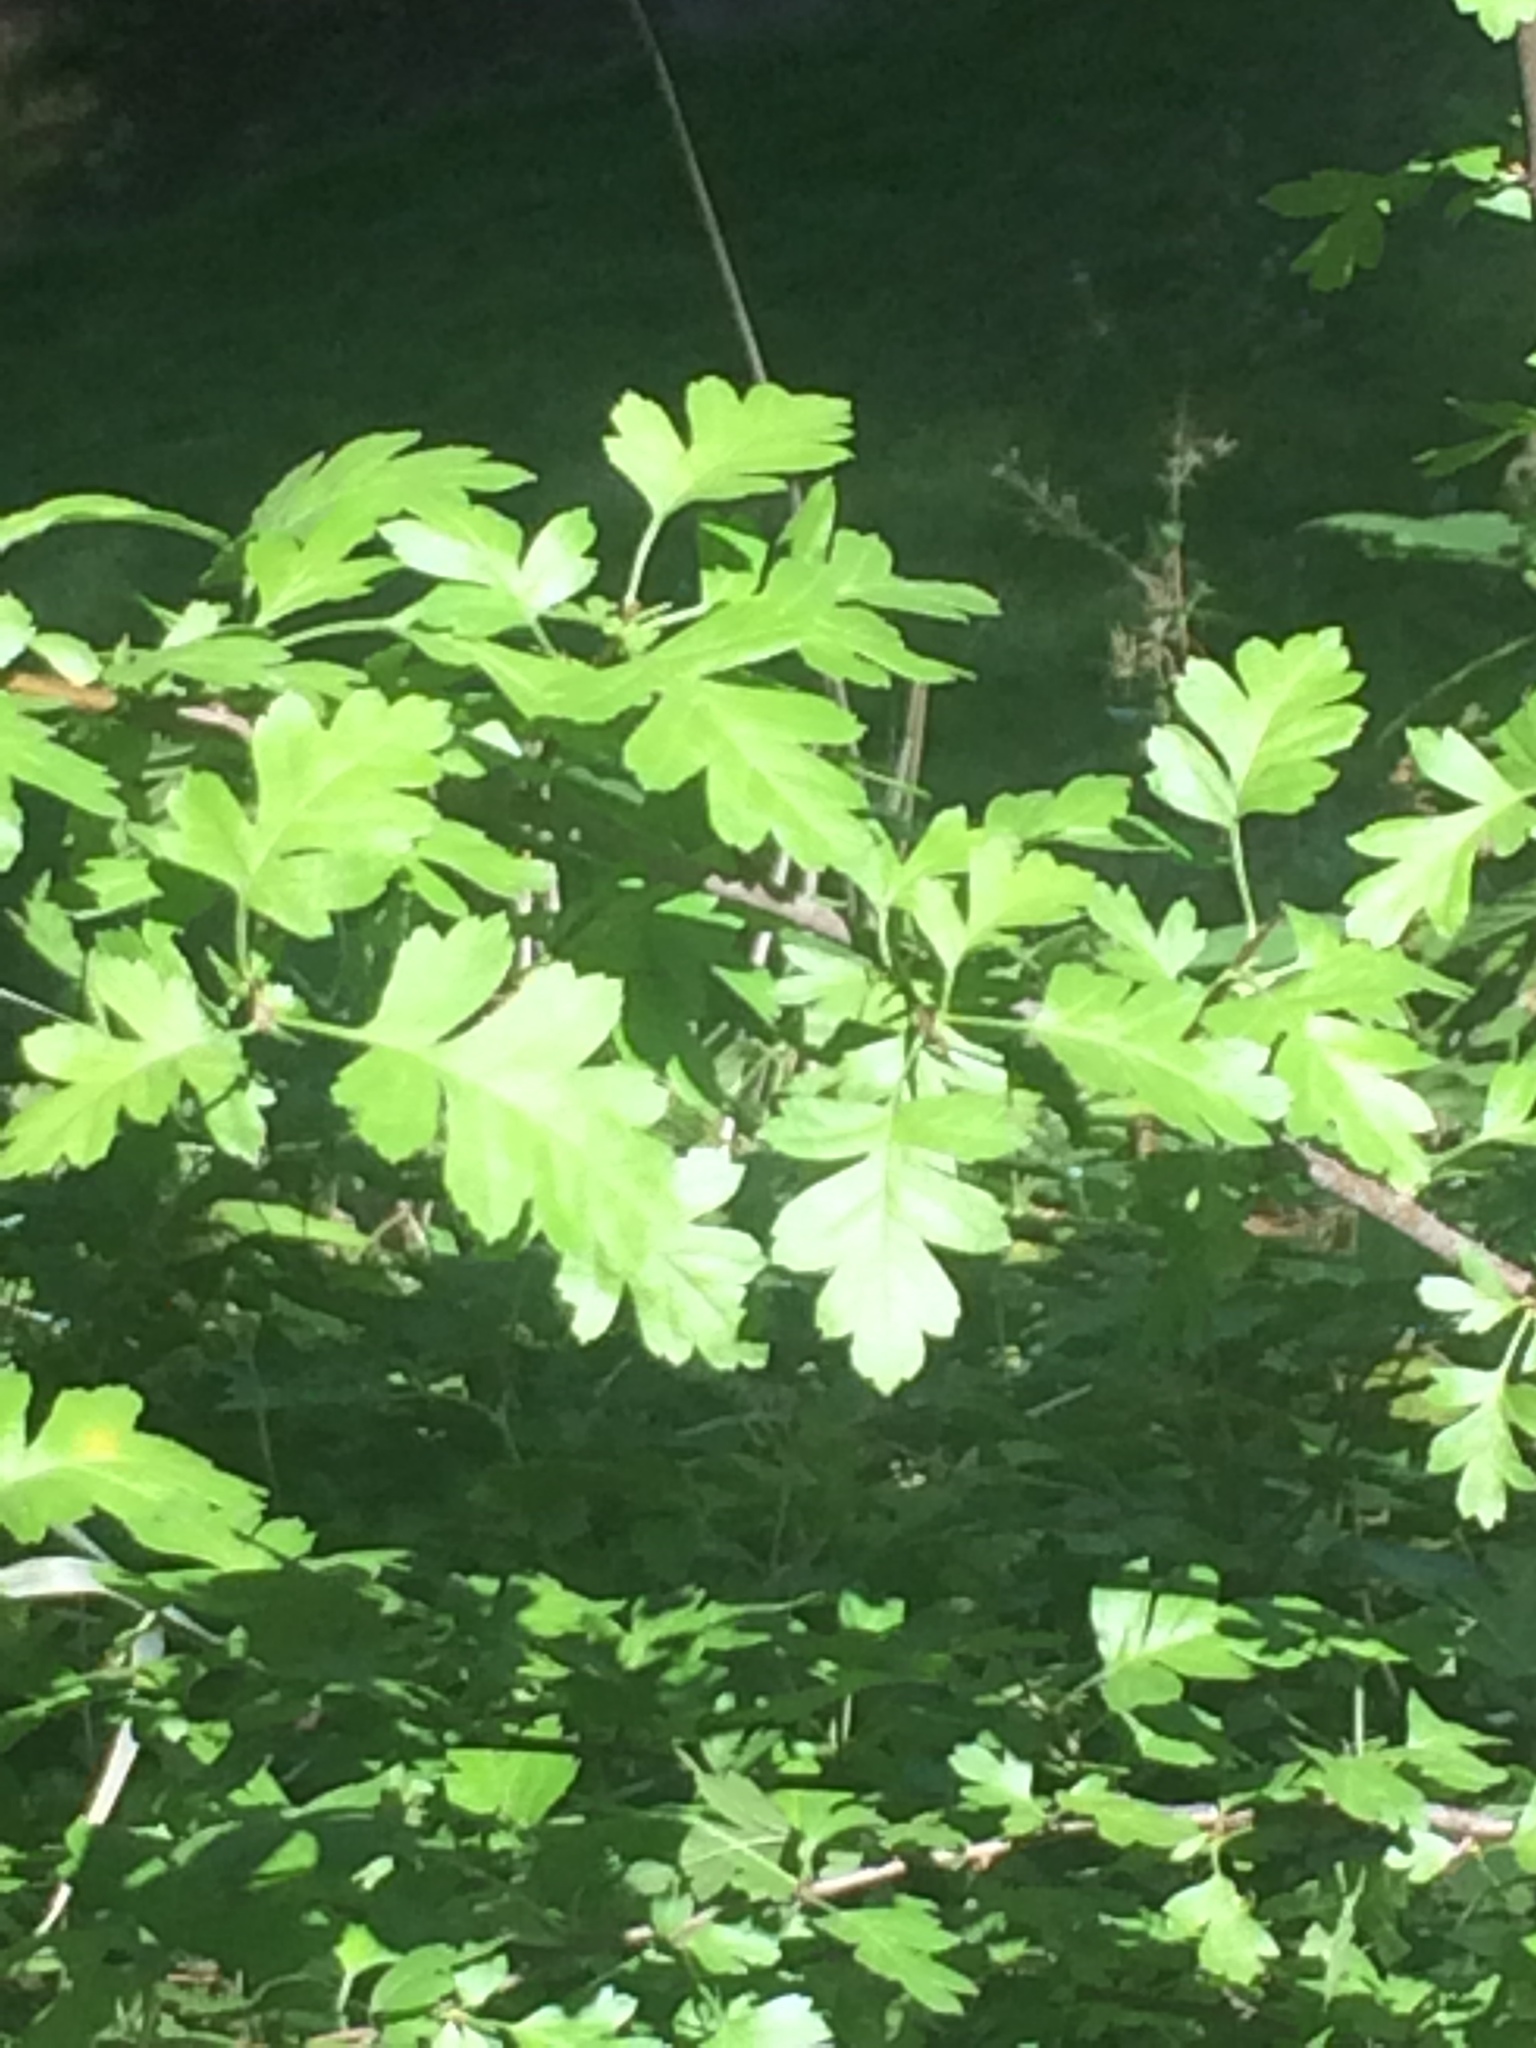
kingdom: Plantae
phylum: Tracheophyta
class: Magnoliopsida
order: Rosales
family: Rosaceae
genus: Crataegus
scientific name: Crataegus monogyna
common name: Hawthorn
